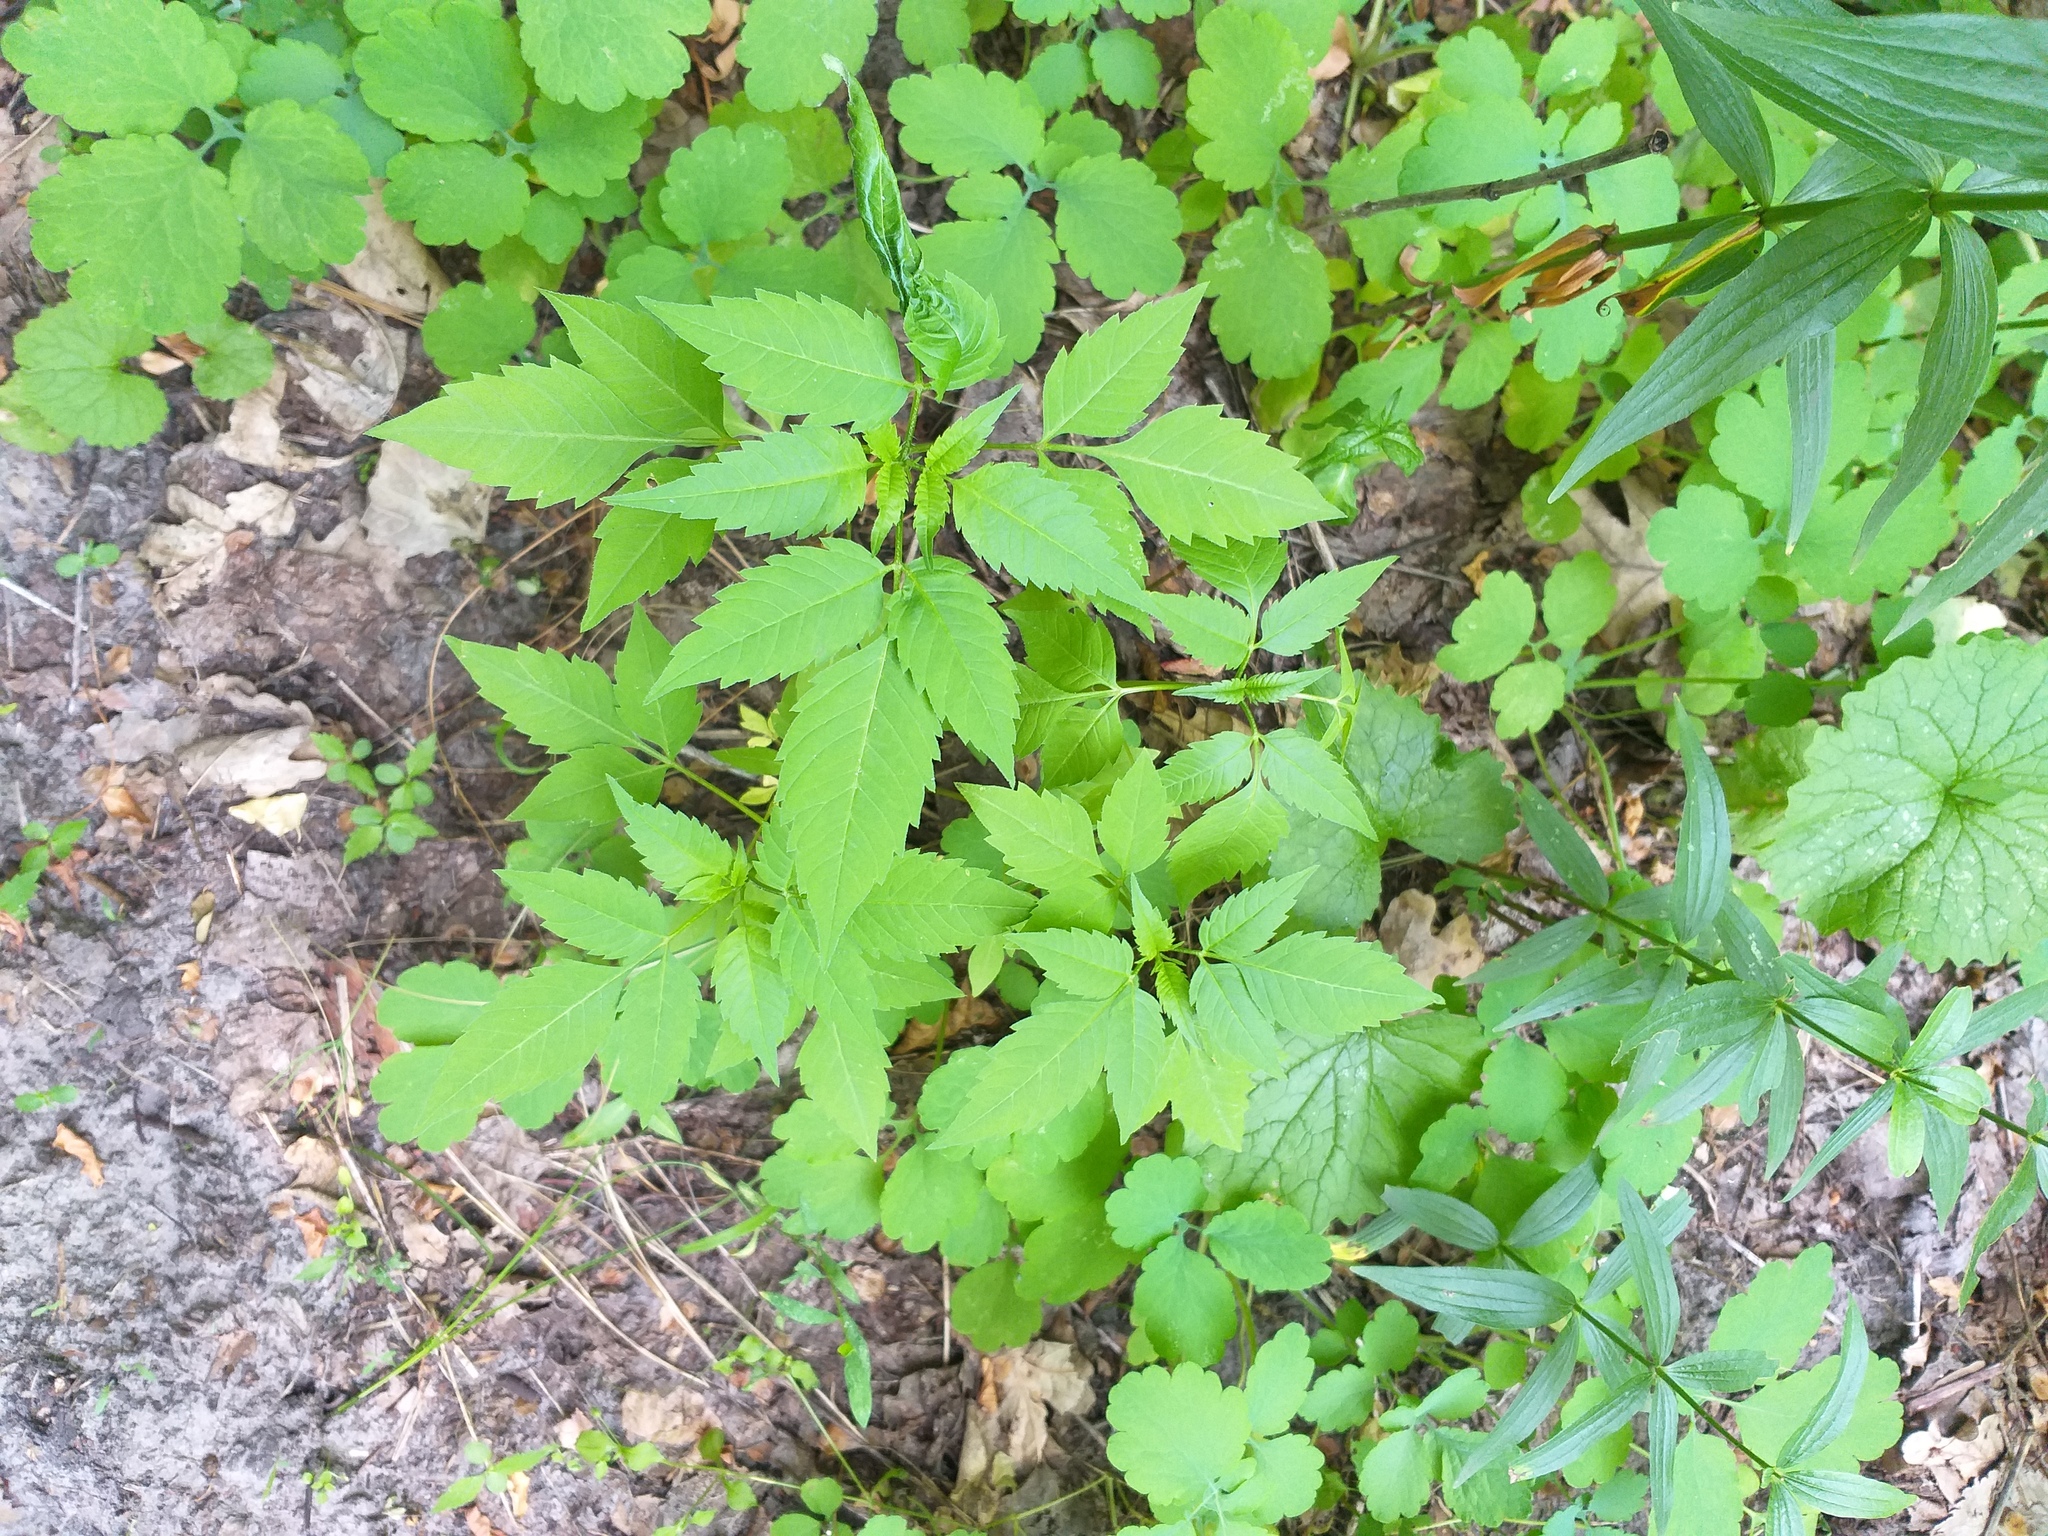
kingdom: Plantae
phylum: Tracheophyta
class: Magnoliopsida
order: Asterales
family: Asteraceae
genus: Bidens
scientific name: Bidens frondosa
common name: Beggarticks
